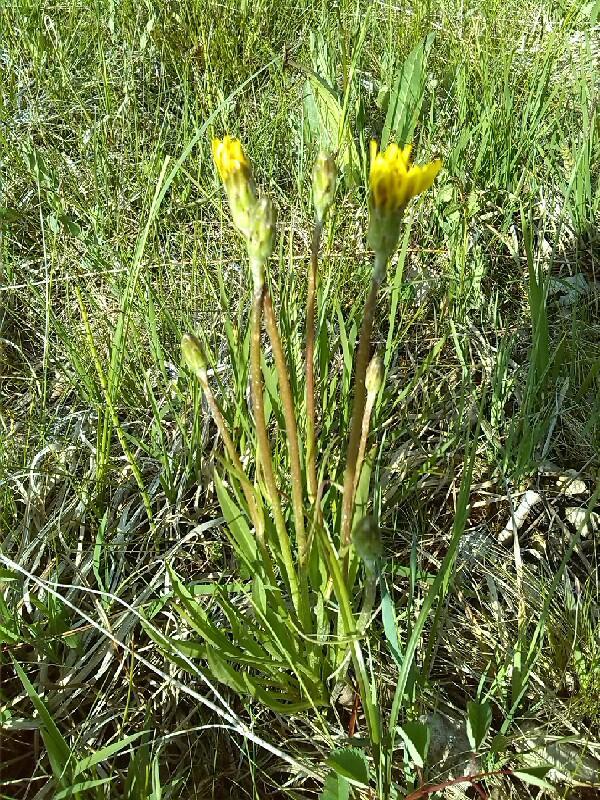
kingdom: Plantae
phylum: Tracheophyta
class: Magnoliopsida
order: Asterales
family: Asteraceae
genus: Scorzonera
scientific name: Scorzonera humilis
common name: Viper's-grass
